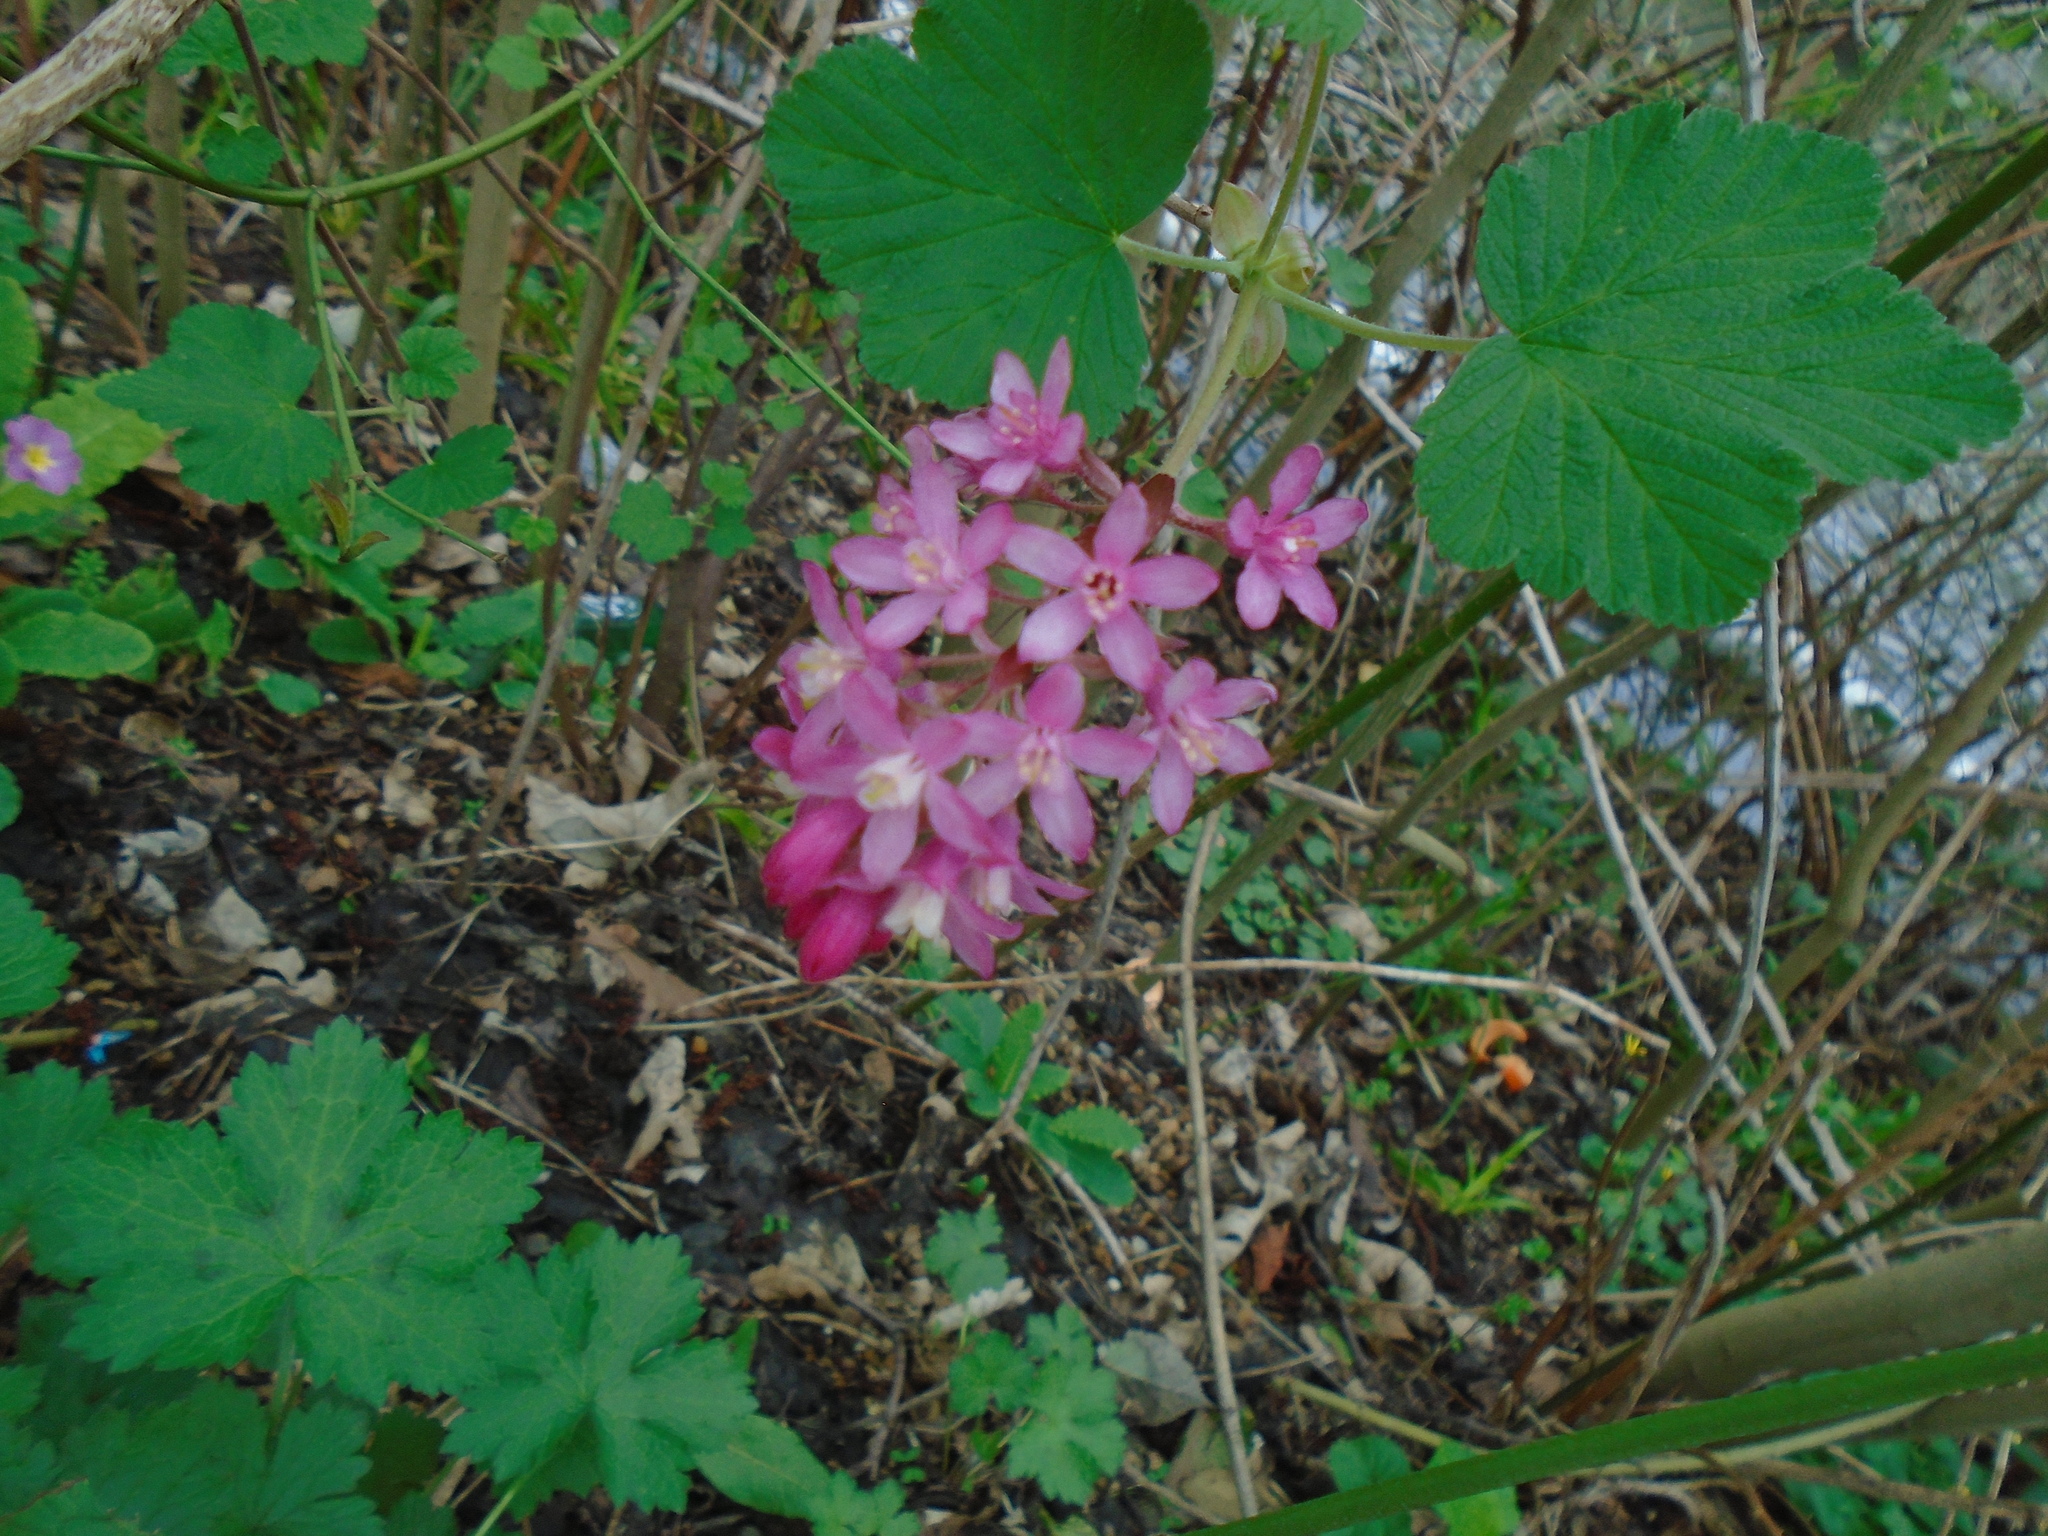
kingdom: Plantae
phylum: Tracheophyta
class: Magnoliopsida
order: Saxifragales
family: Grossulariaceae
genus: Ribes
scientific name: Ribes sanguineum
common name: Flowering currant
